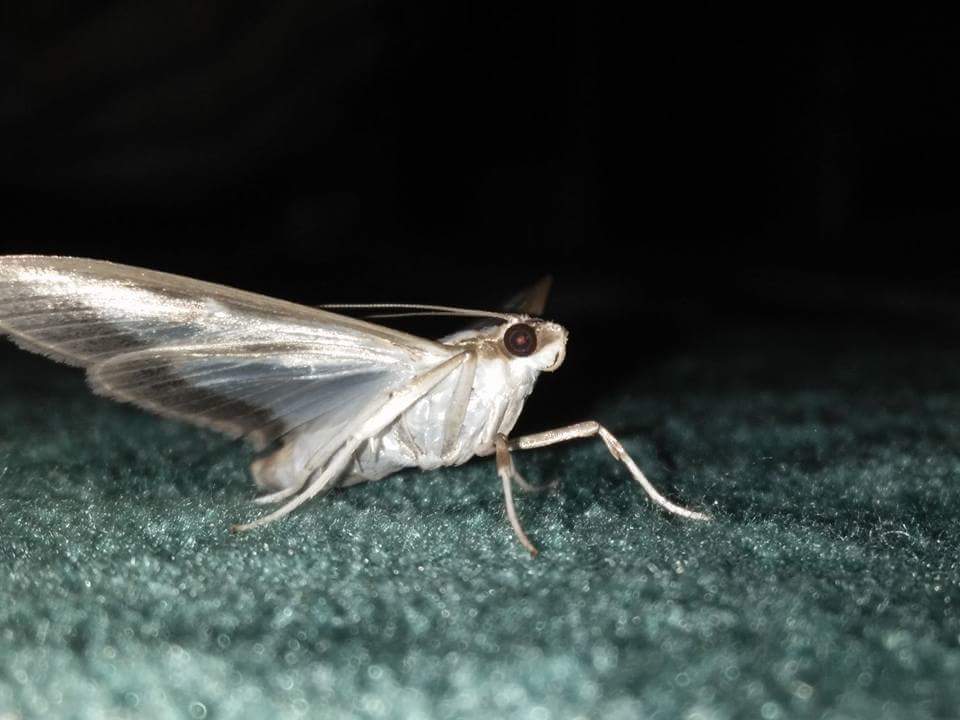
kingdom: Animalia
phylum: Arthropoda
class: Insecta
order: Lepidoptera
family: Crambidae
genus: Cydalima
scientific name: Cydalima perspectalis
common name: Box tree moth
